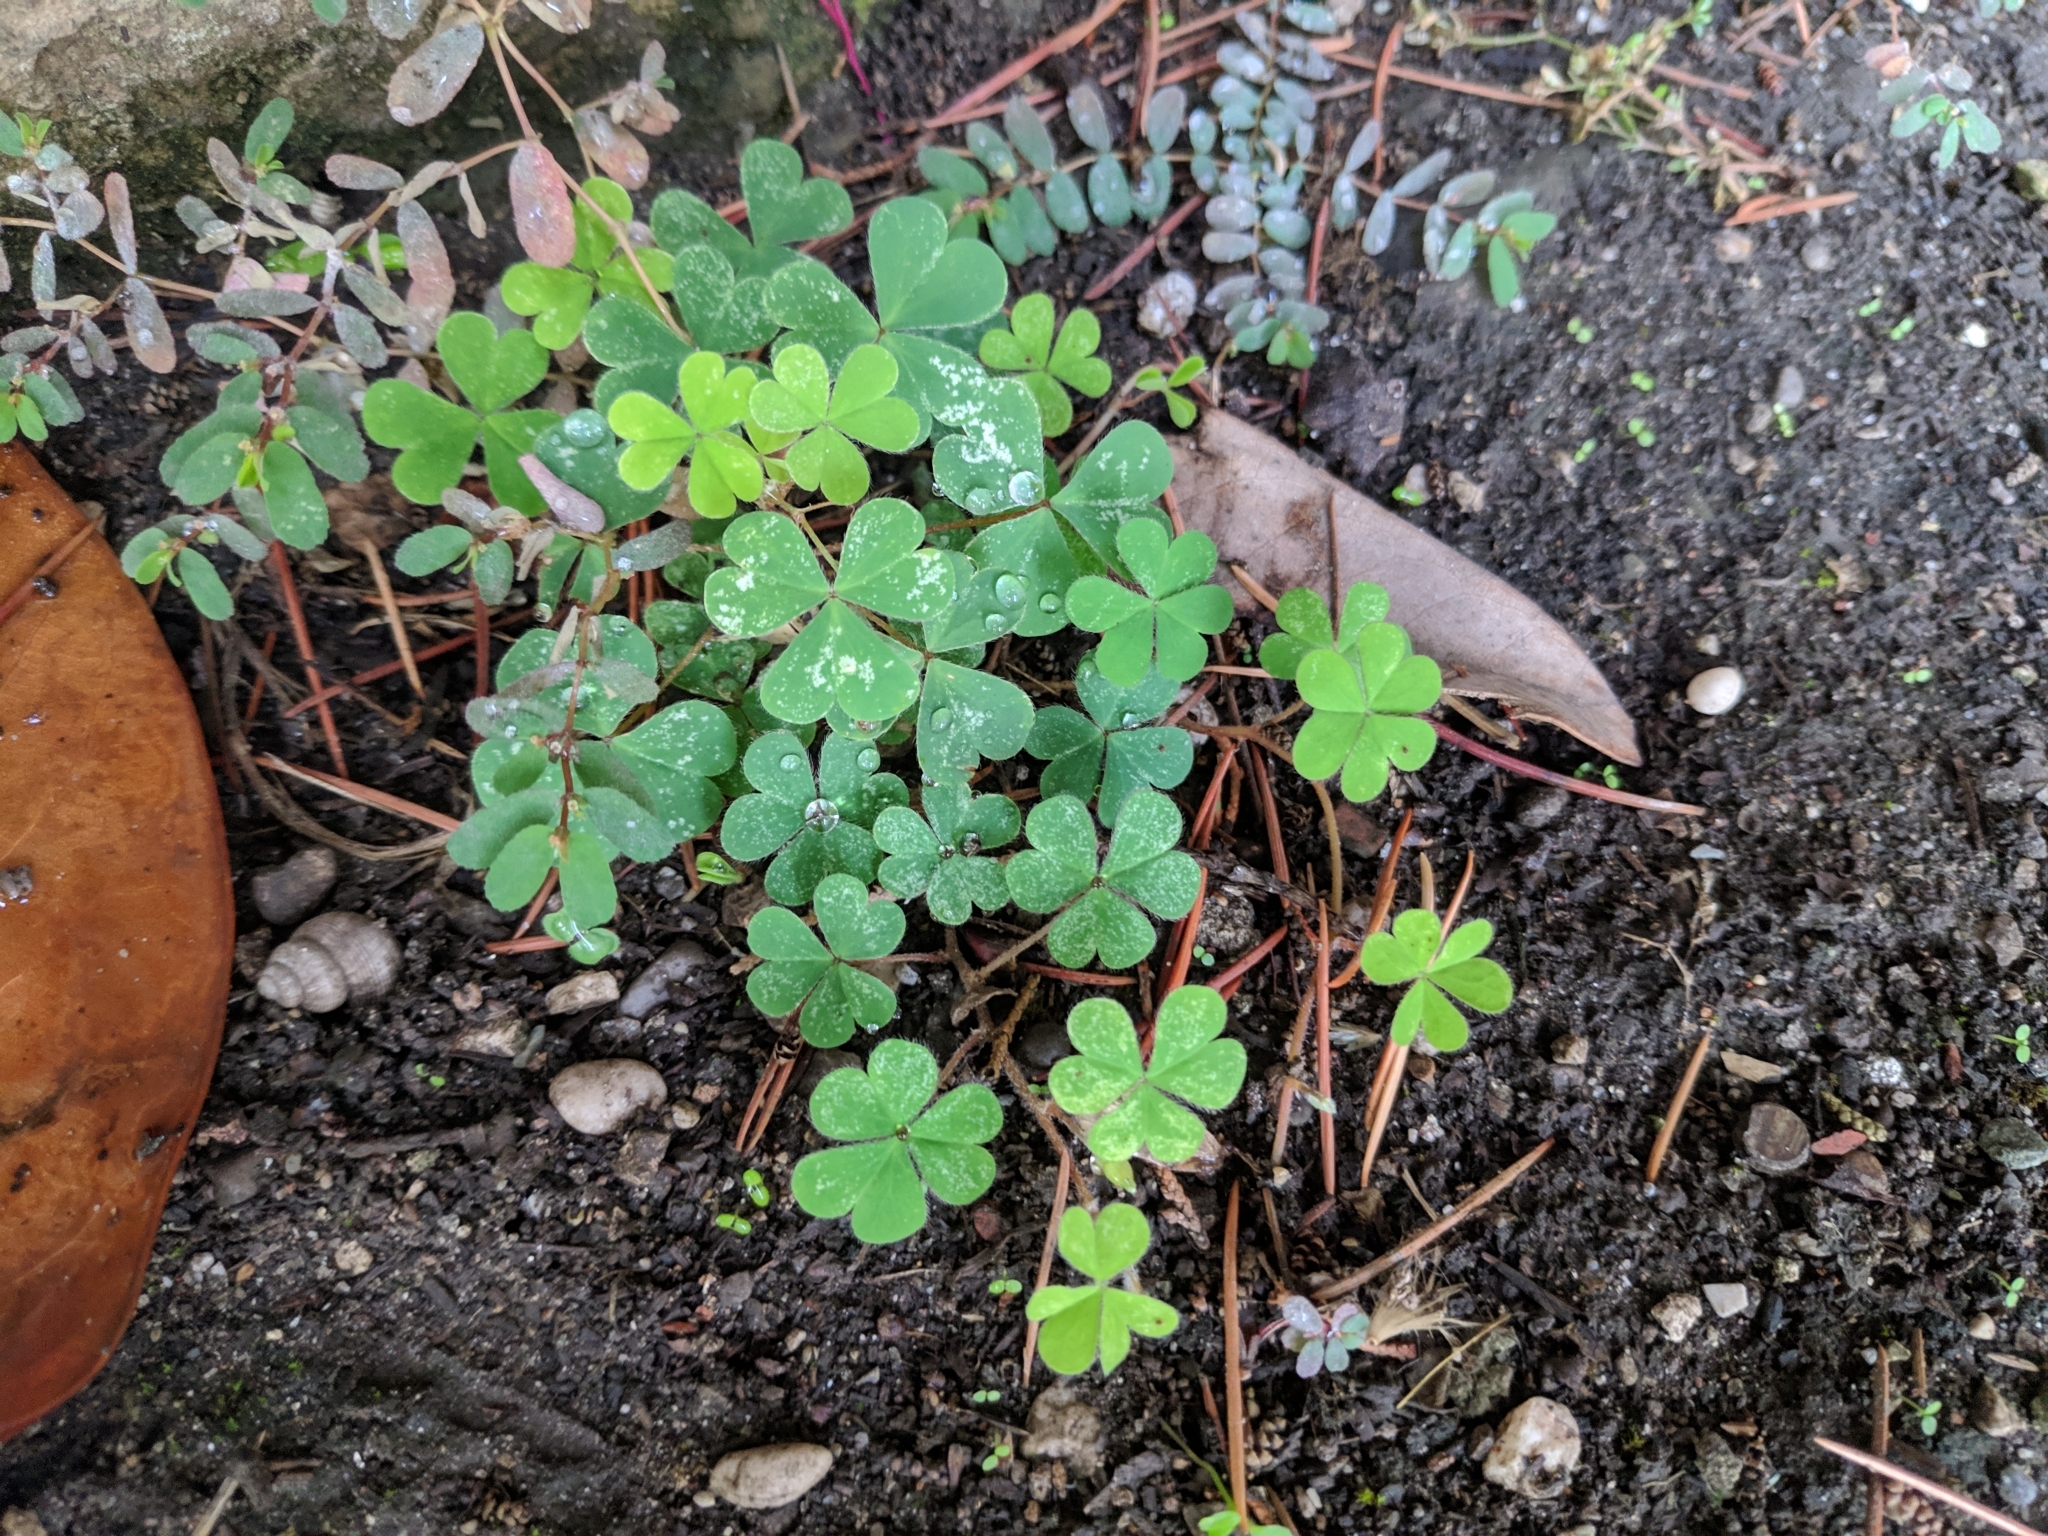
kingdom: Plantae
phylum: Tracheophyta
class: Magnoliopsida
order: Oxalidales
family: Oxalidaceae
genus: Oxalis
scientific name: Oxalis corniculata
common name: Procumbent yellow-sorrel
